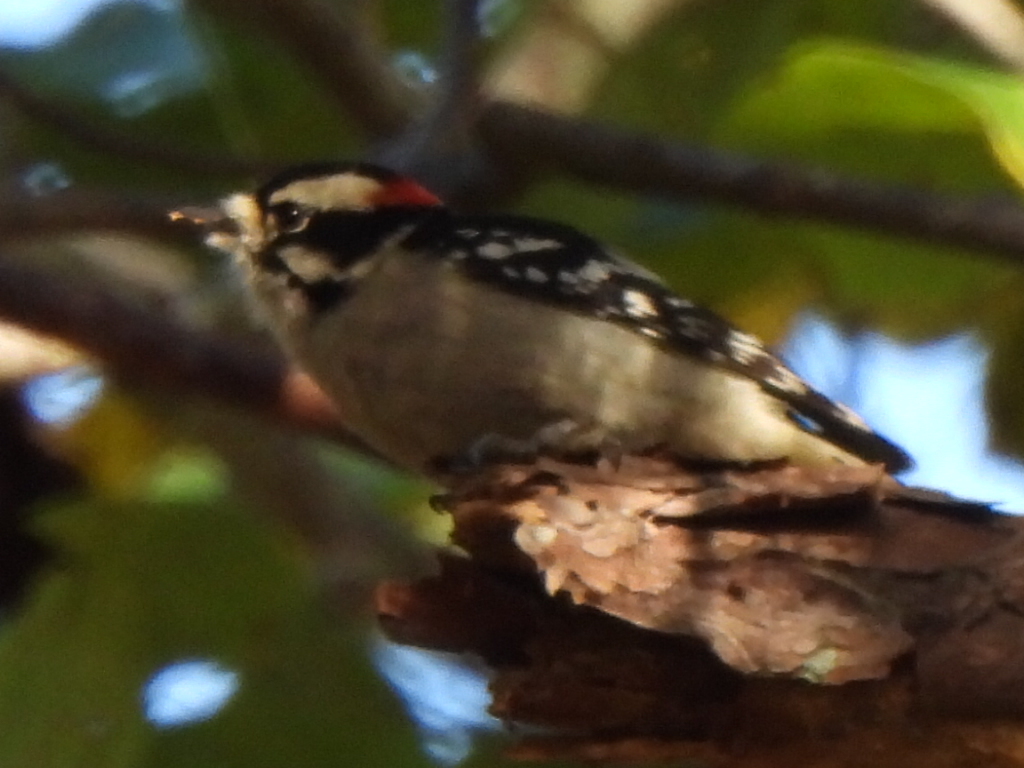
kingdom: Animalia
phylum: Chordata
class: Aves
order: Piciformes
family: Picidae
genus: Dryobates
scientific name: Dryobates pubescens
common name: Downy woodpecker
